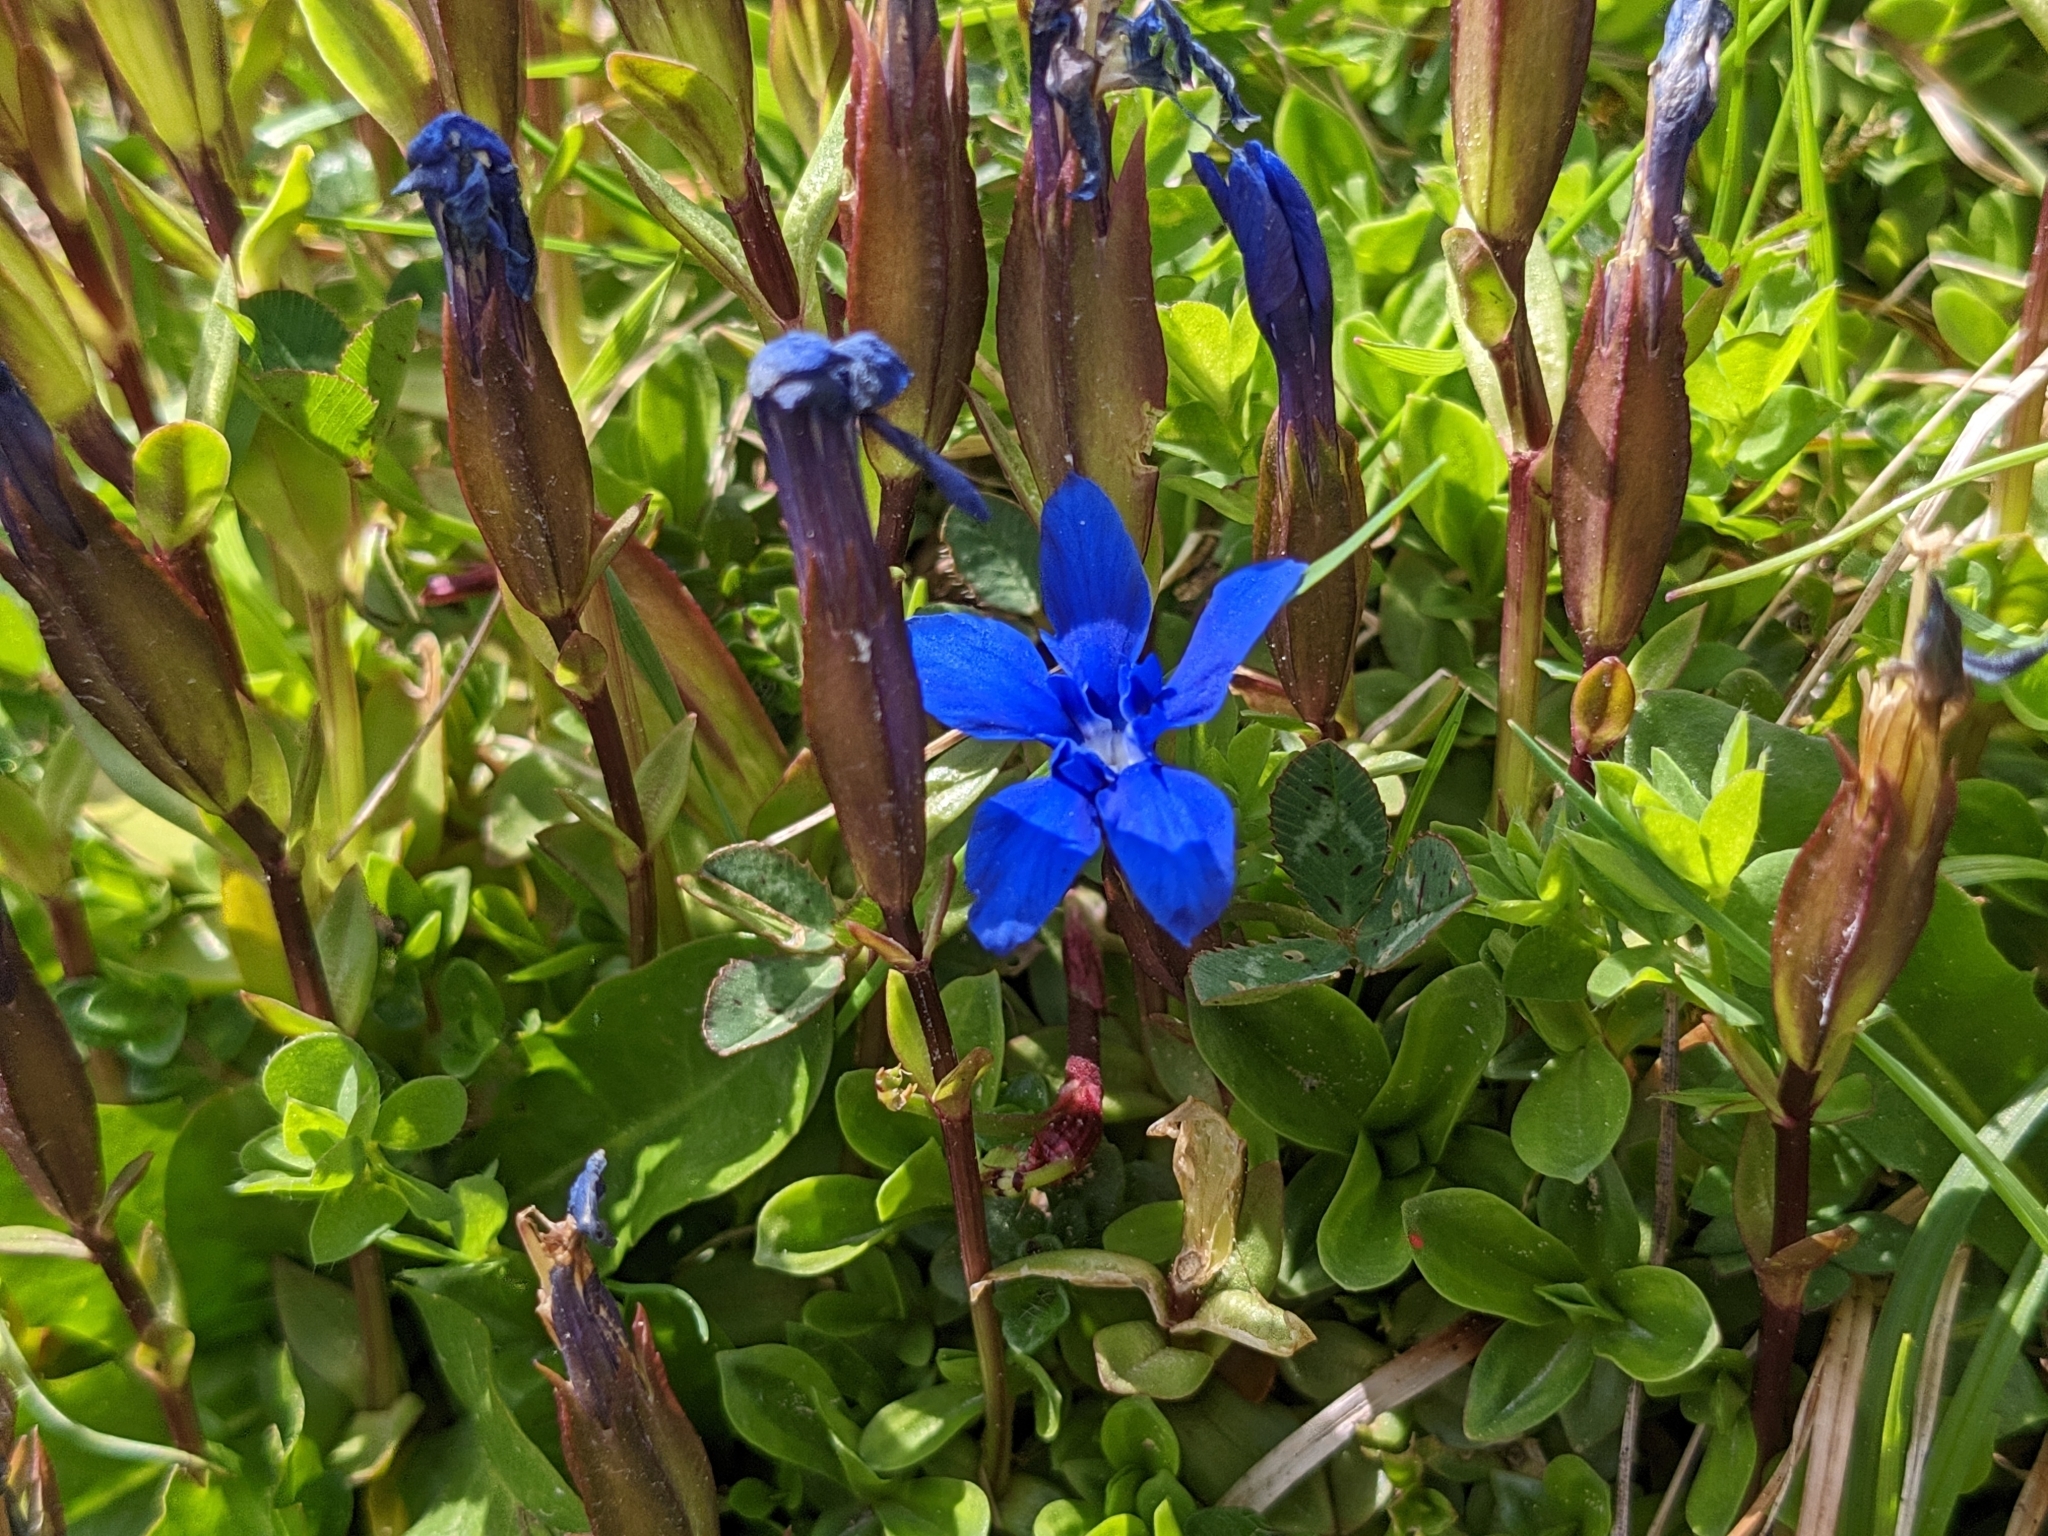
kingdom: Plantae
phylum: Tracheophyta
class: Magnoliopsida
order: Gentianales
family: Gentianaceae
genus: Gentiana
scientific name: Gentiana verna
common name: Spring gentian
